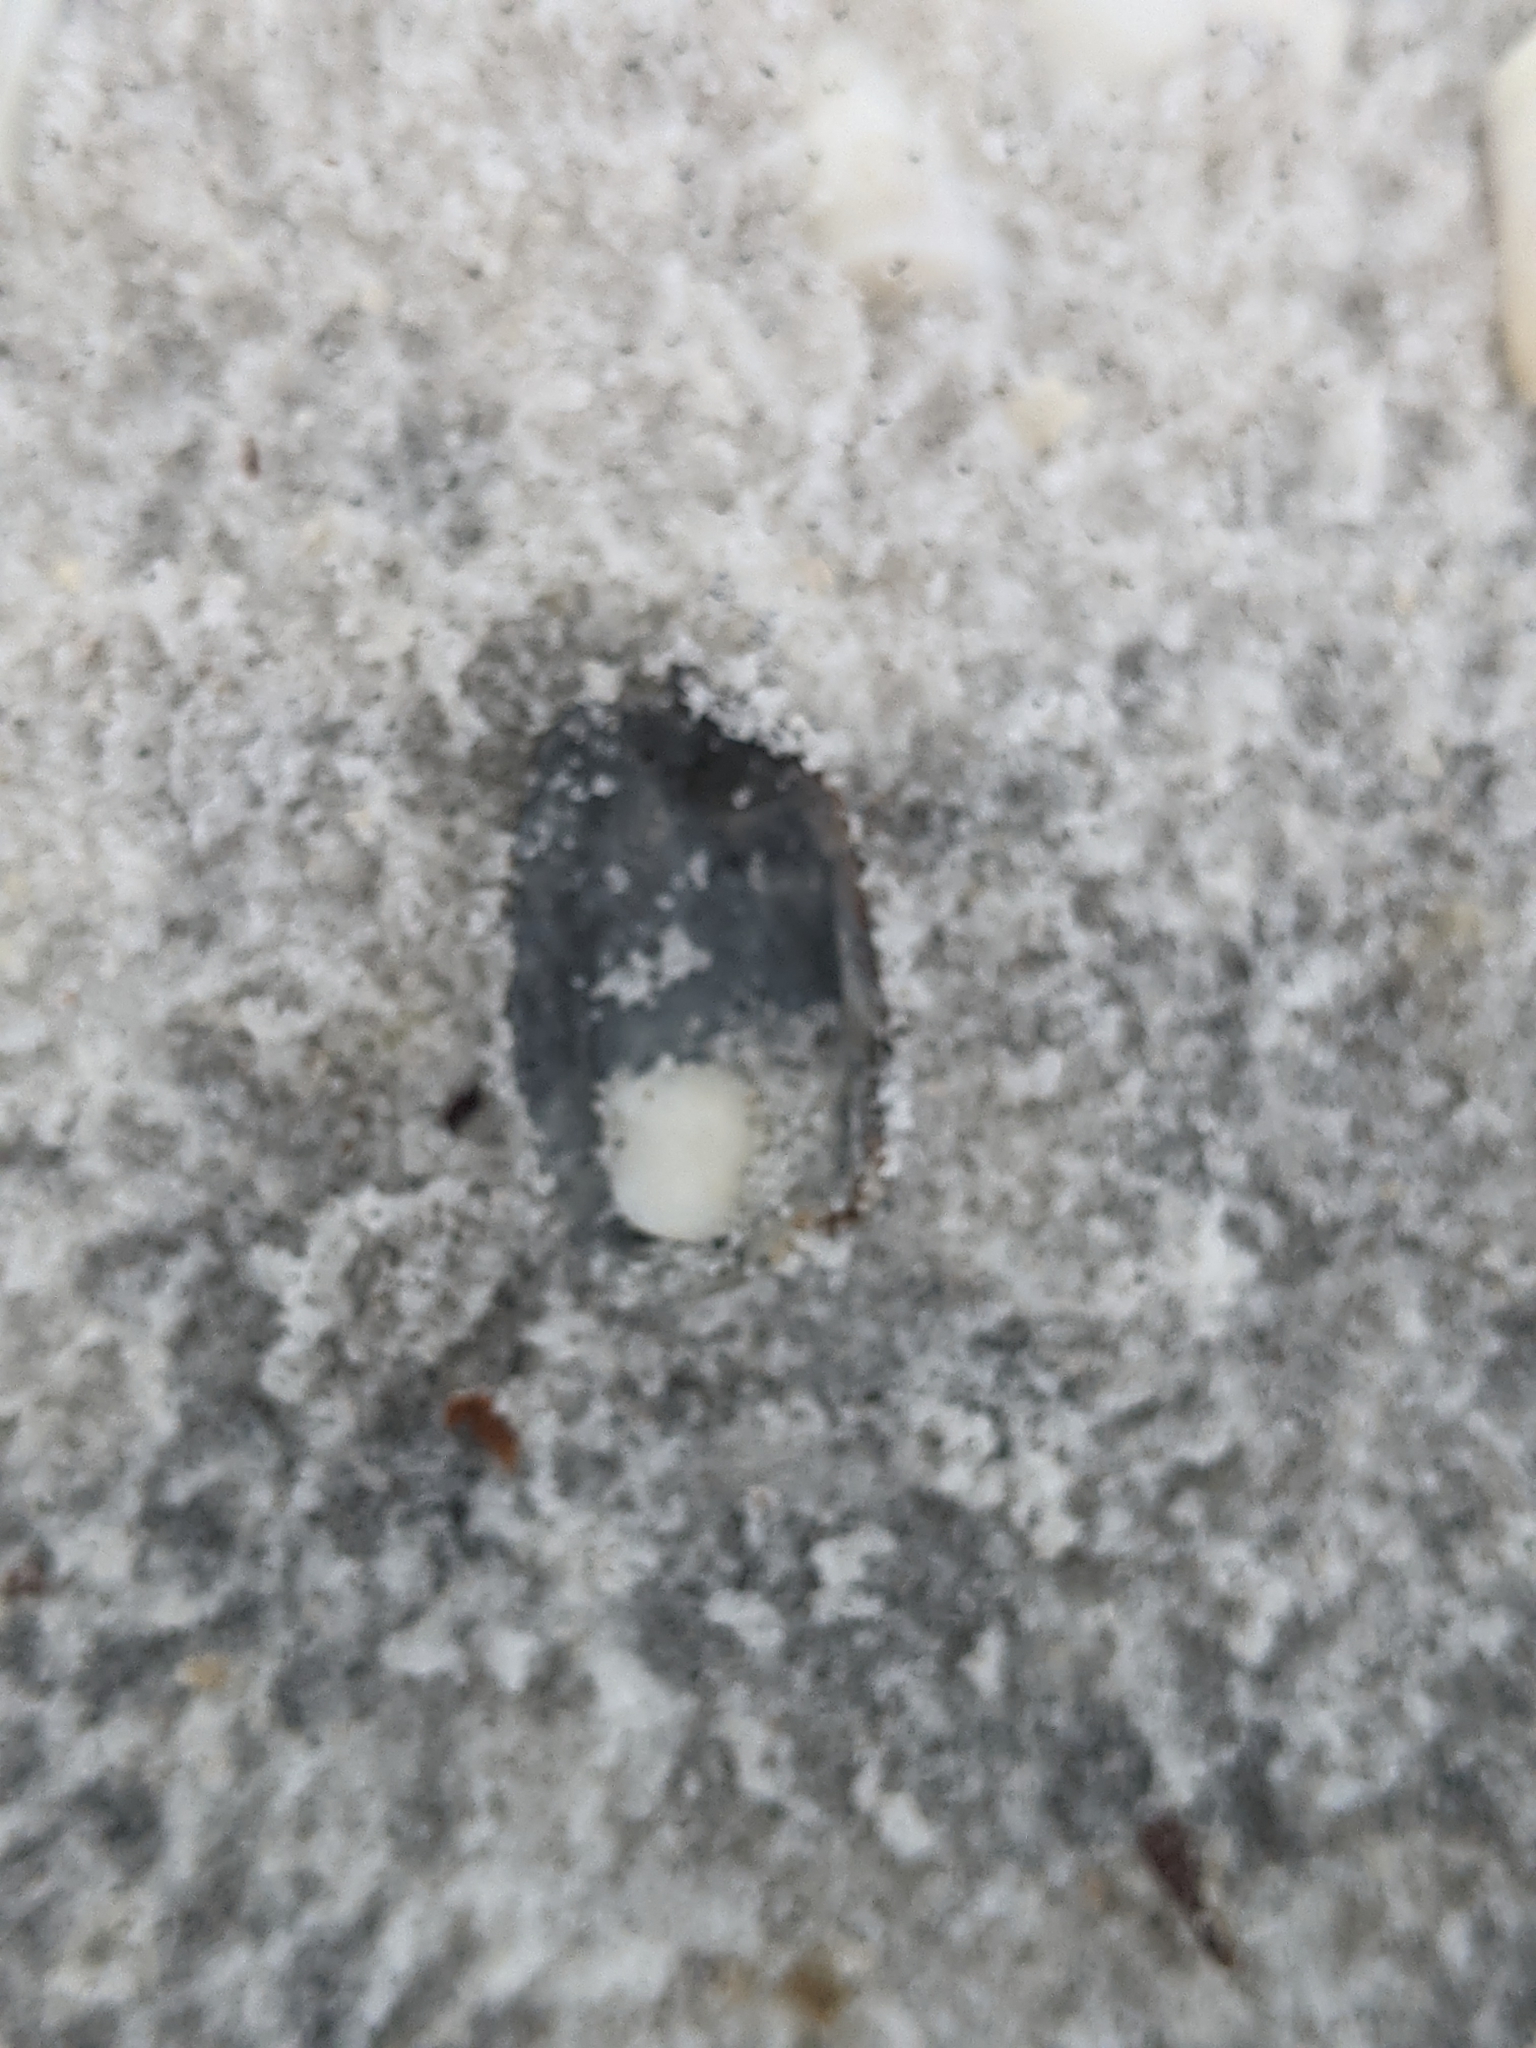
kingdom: Animalia
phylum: Mollusca
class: Bivalvia
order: Carditida
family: Carditidae
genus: Cardites
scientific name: Cardites floridanus
